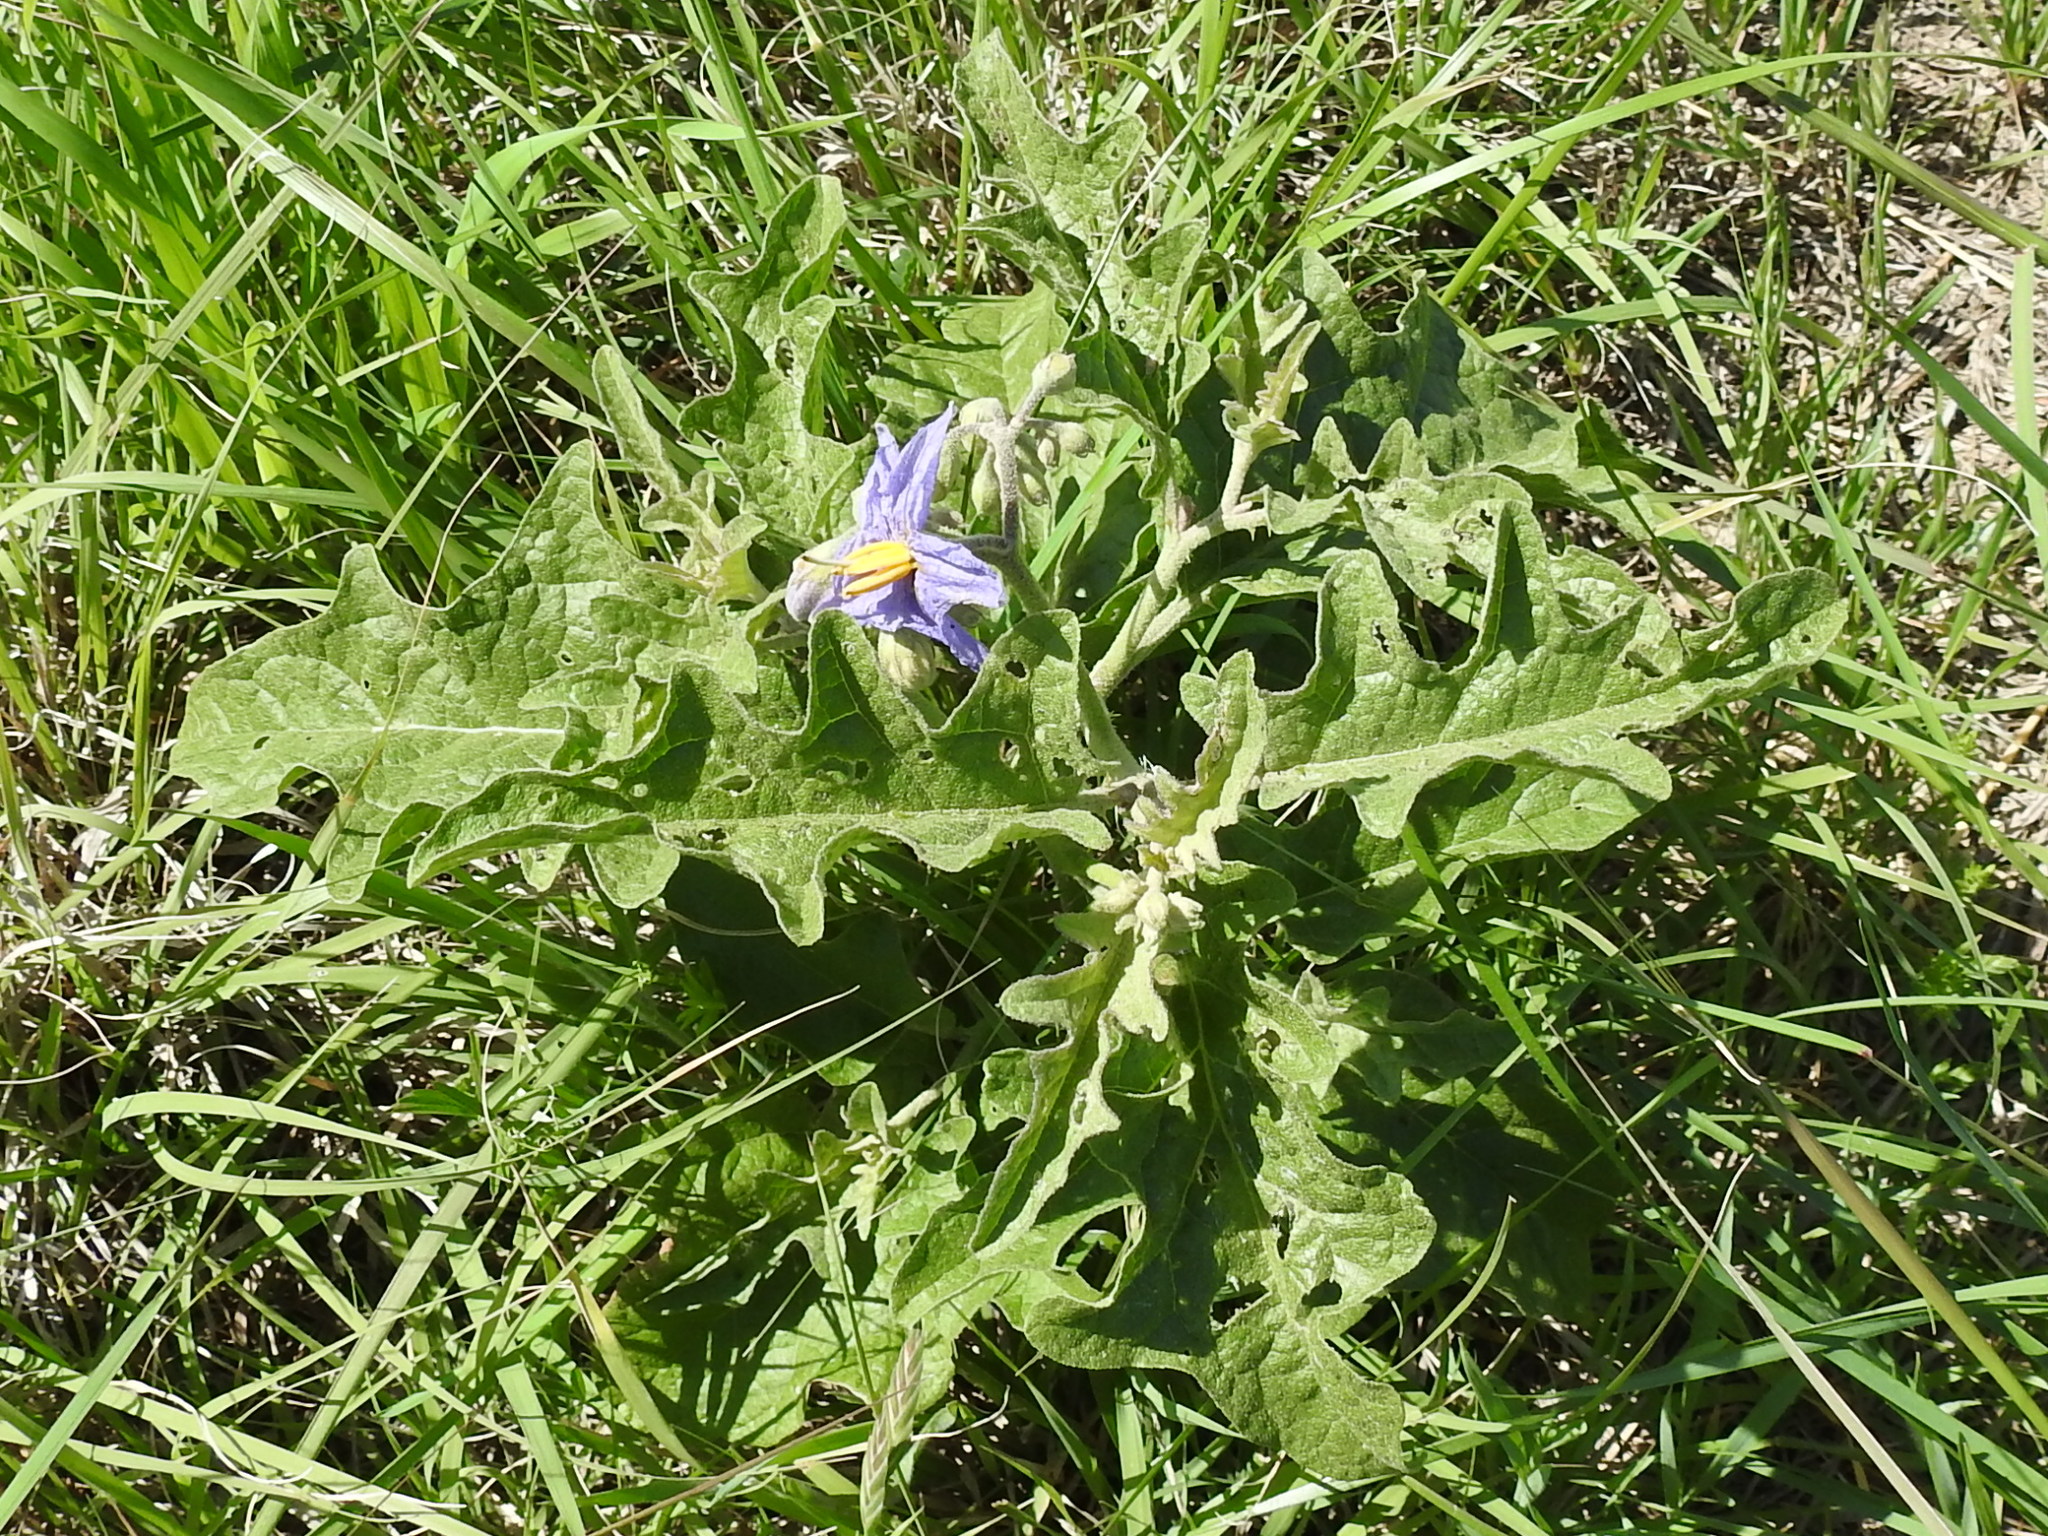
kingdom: Plantae
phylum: Tracheophyta
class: Magnoliopsida
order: Solanales
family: Solanaceae
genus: Solanum
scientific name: Solanum dimidiatum
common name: Carolina horse-nettle
